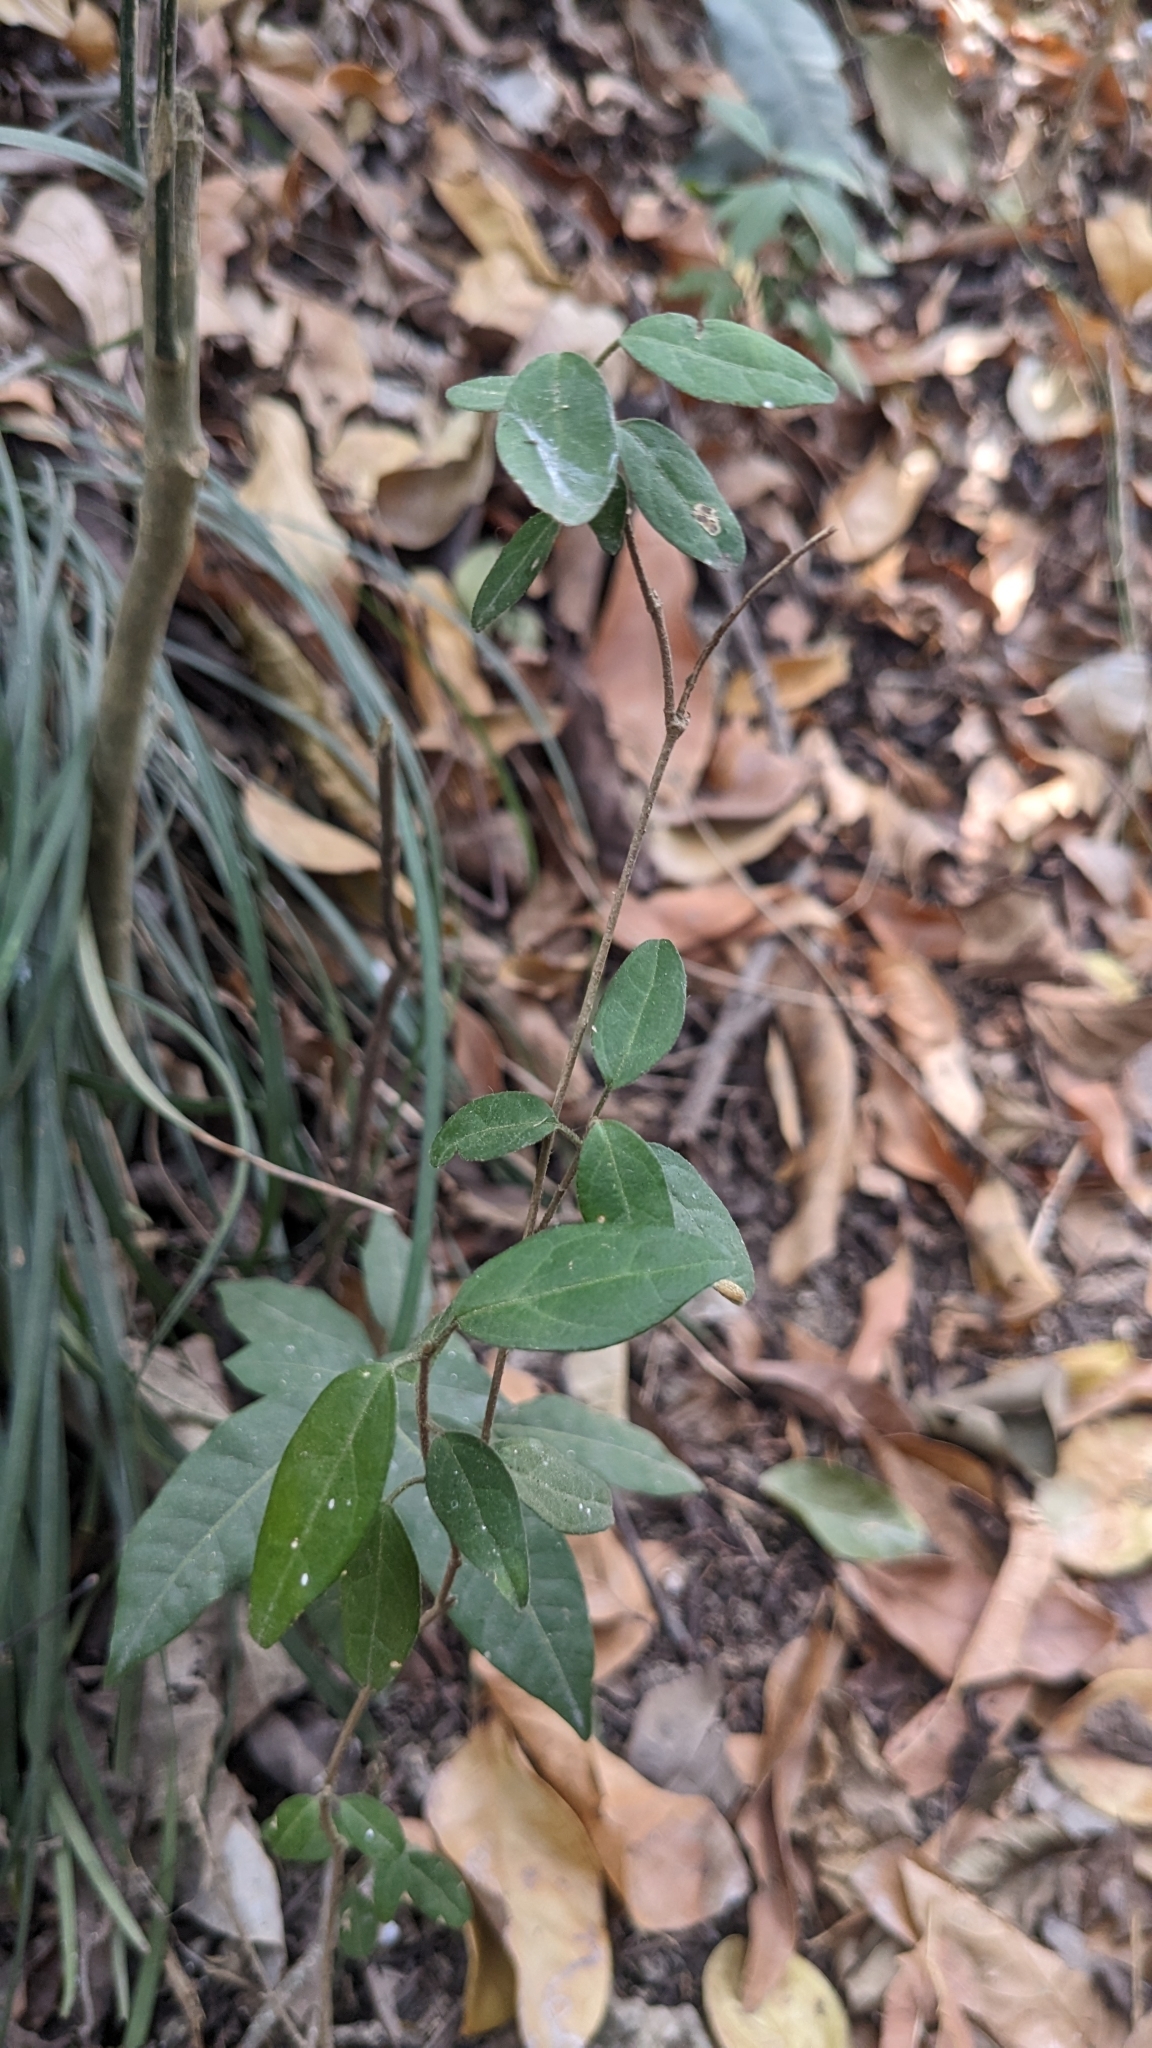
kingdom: Plantae
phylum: Tracheophyta
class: Magnoliopsida
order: Gentianales
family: Apocynaceae
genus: Gymnema
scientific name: Gymnema sylvestre
